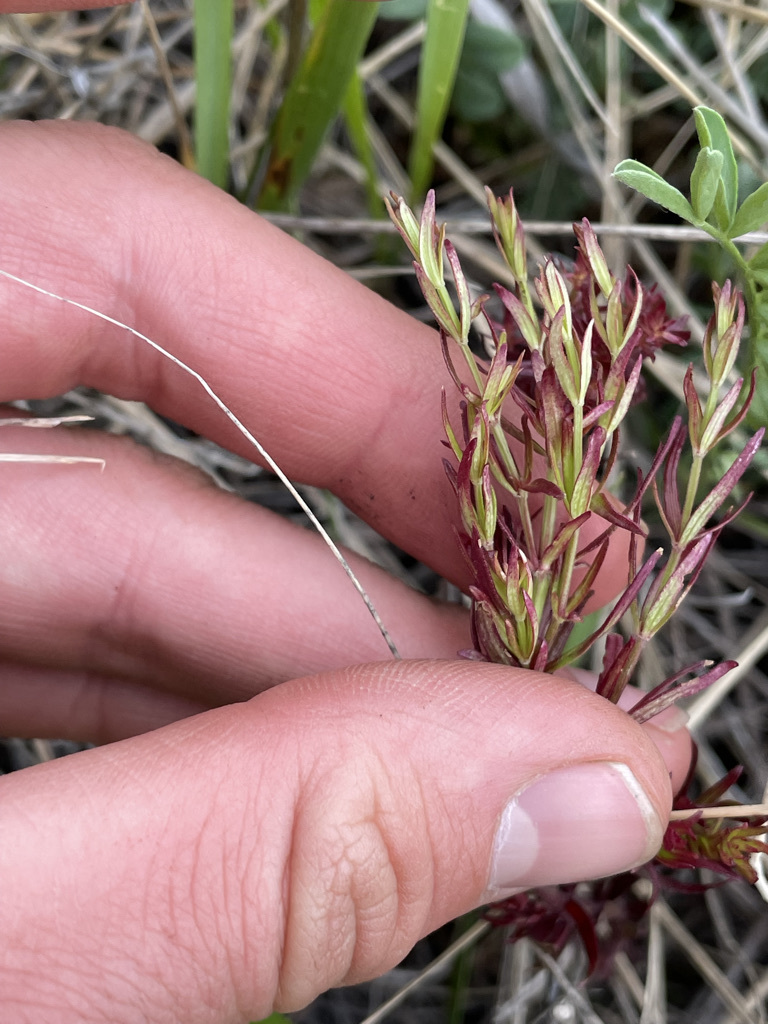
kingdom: Plantae
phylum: Tracheophyta
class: Magnoliopsida
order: Gentianales
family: Rubiaceae
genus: Galium
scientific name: Galium boreale
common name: Northern bedstraw
